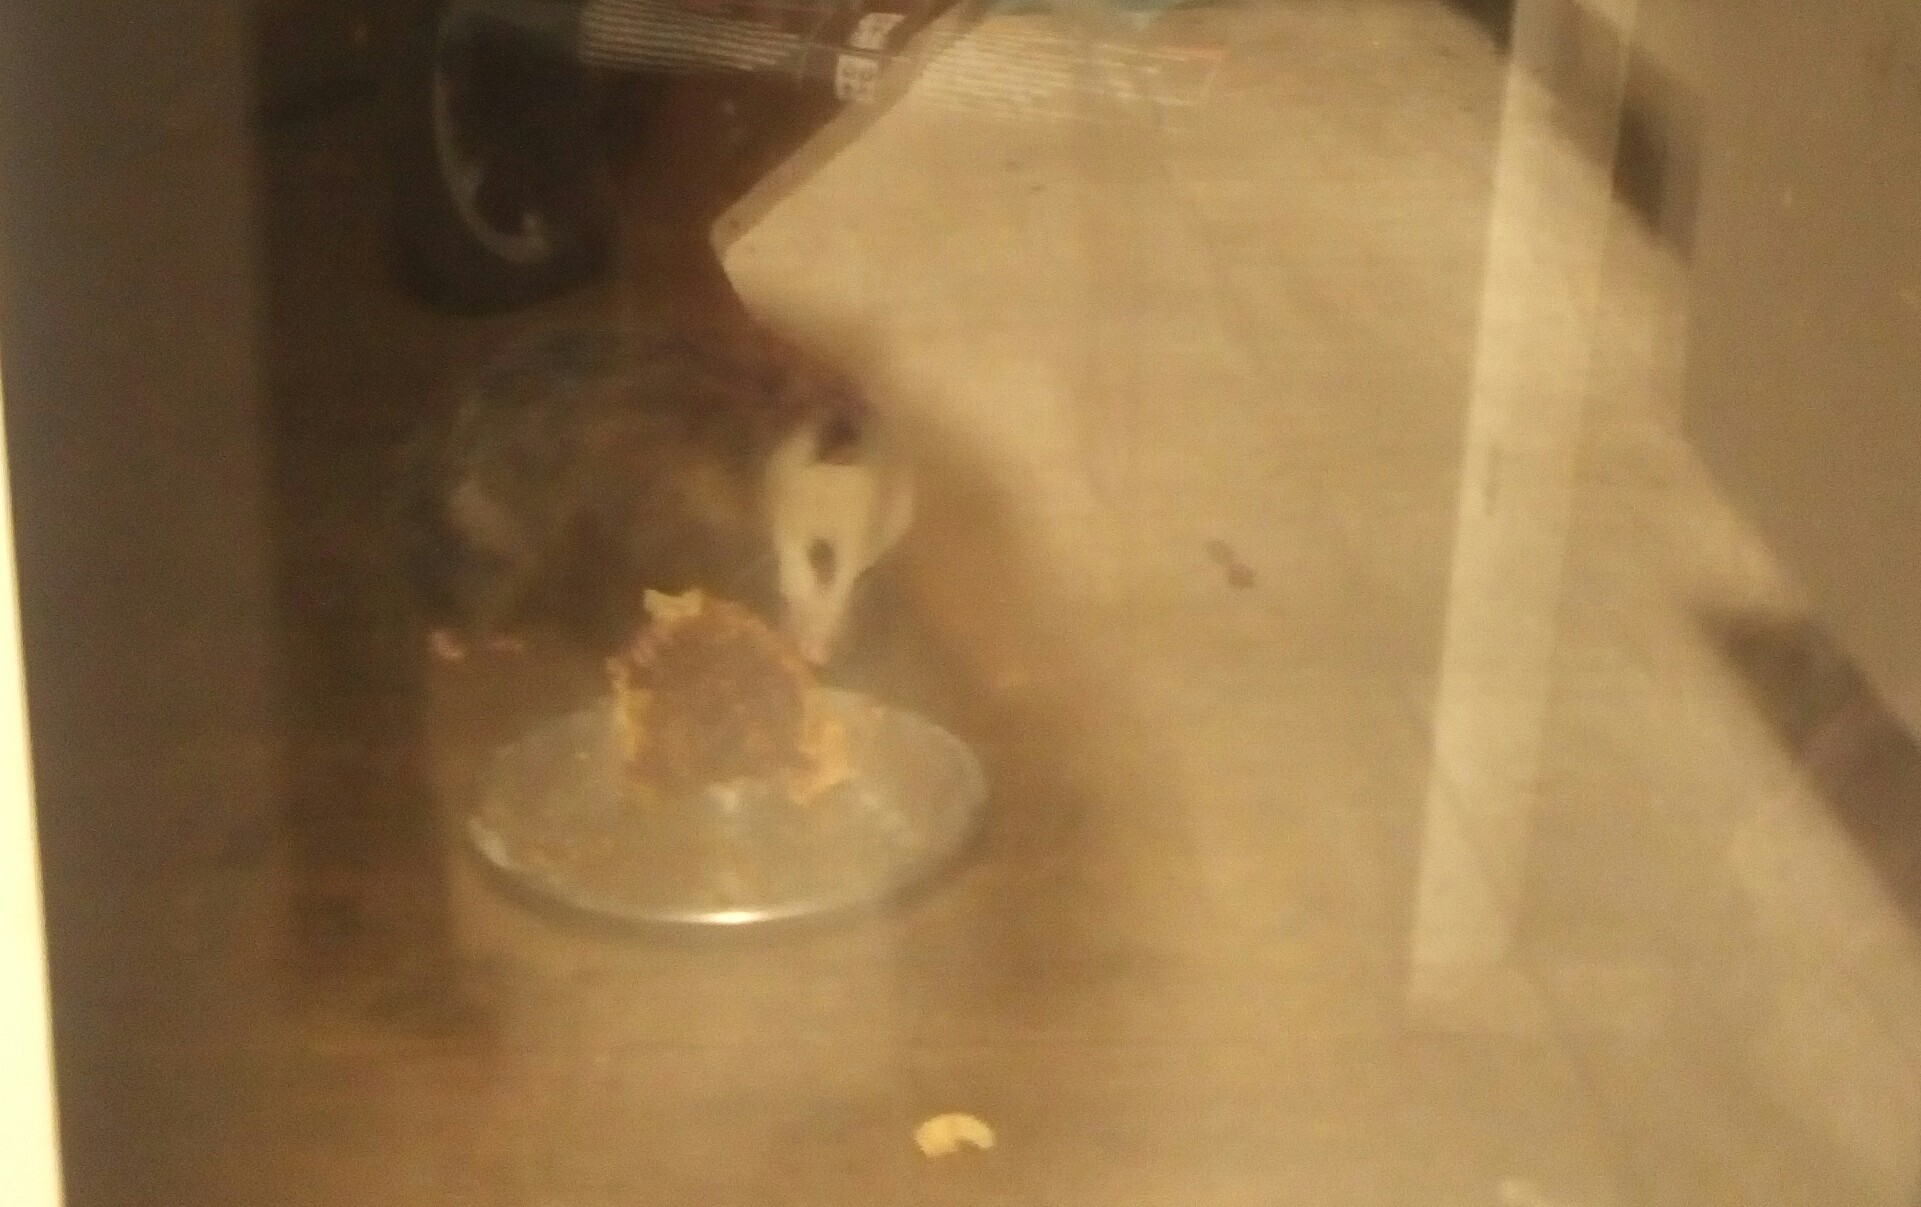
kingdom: Animalia
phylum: Chordata
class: Mammalia
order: Didelphimorphia
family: Didelphidae
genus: Didelphis
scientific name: Didelphis virginiana
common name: Virginia opossum
